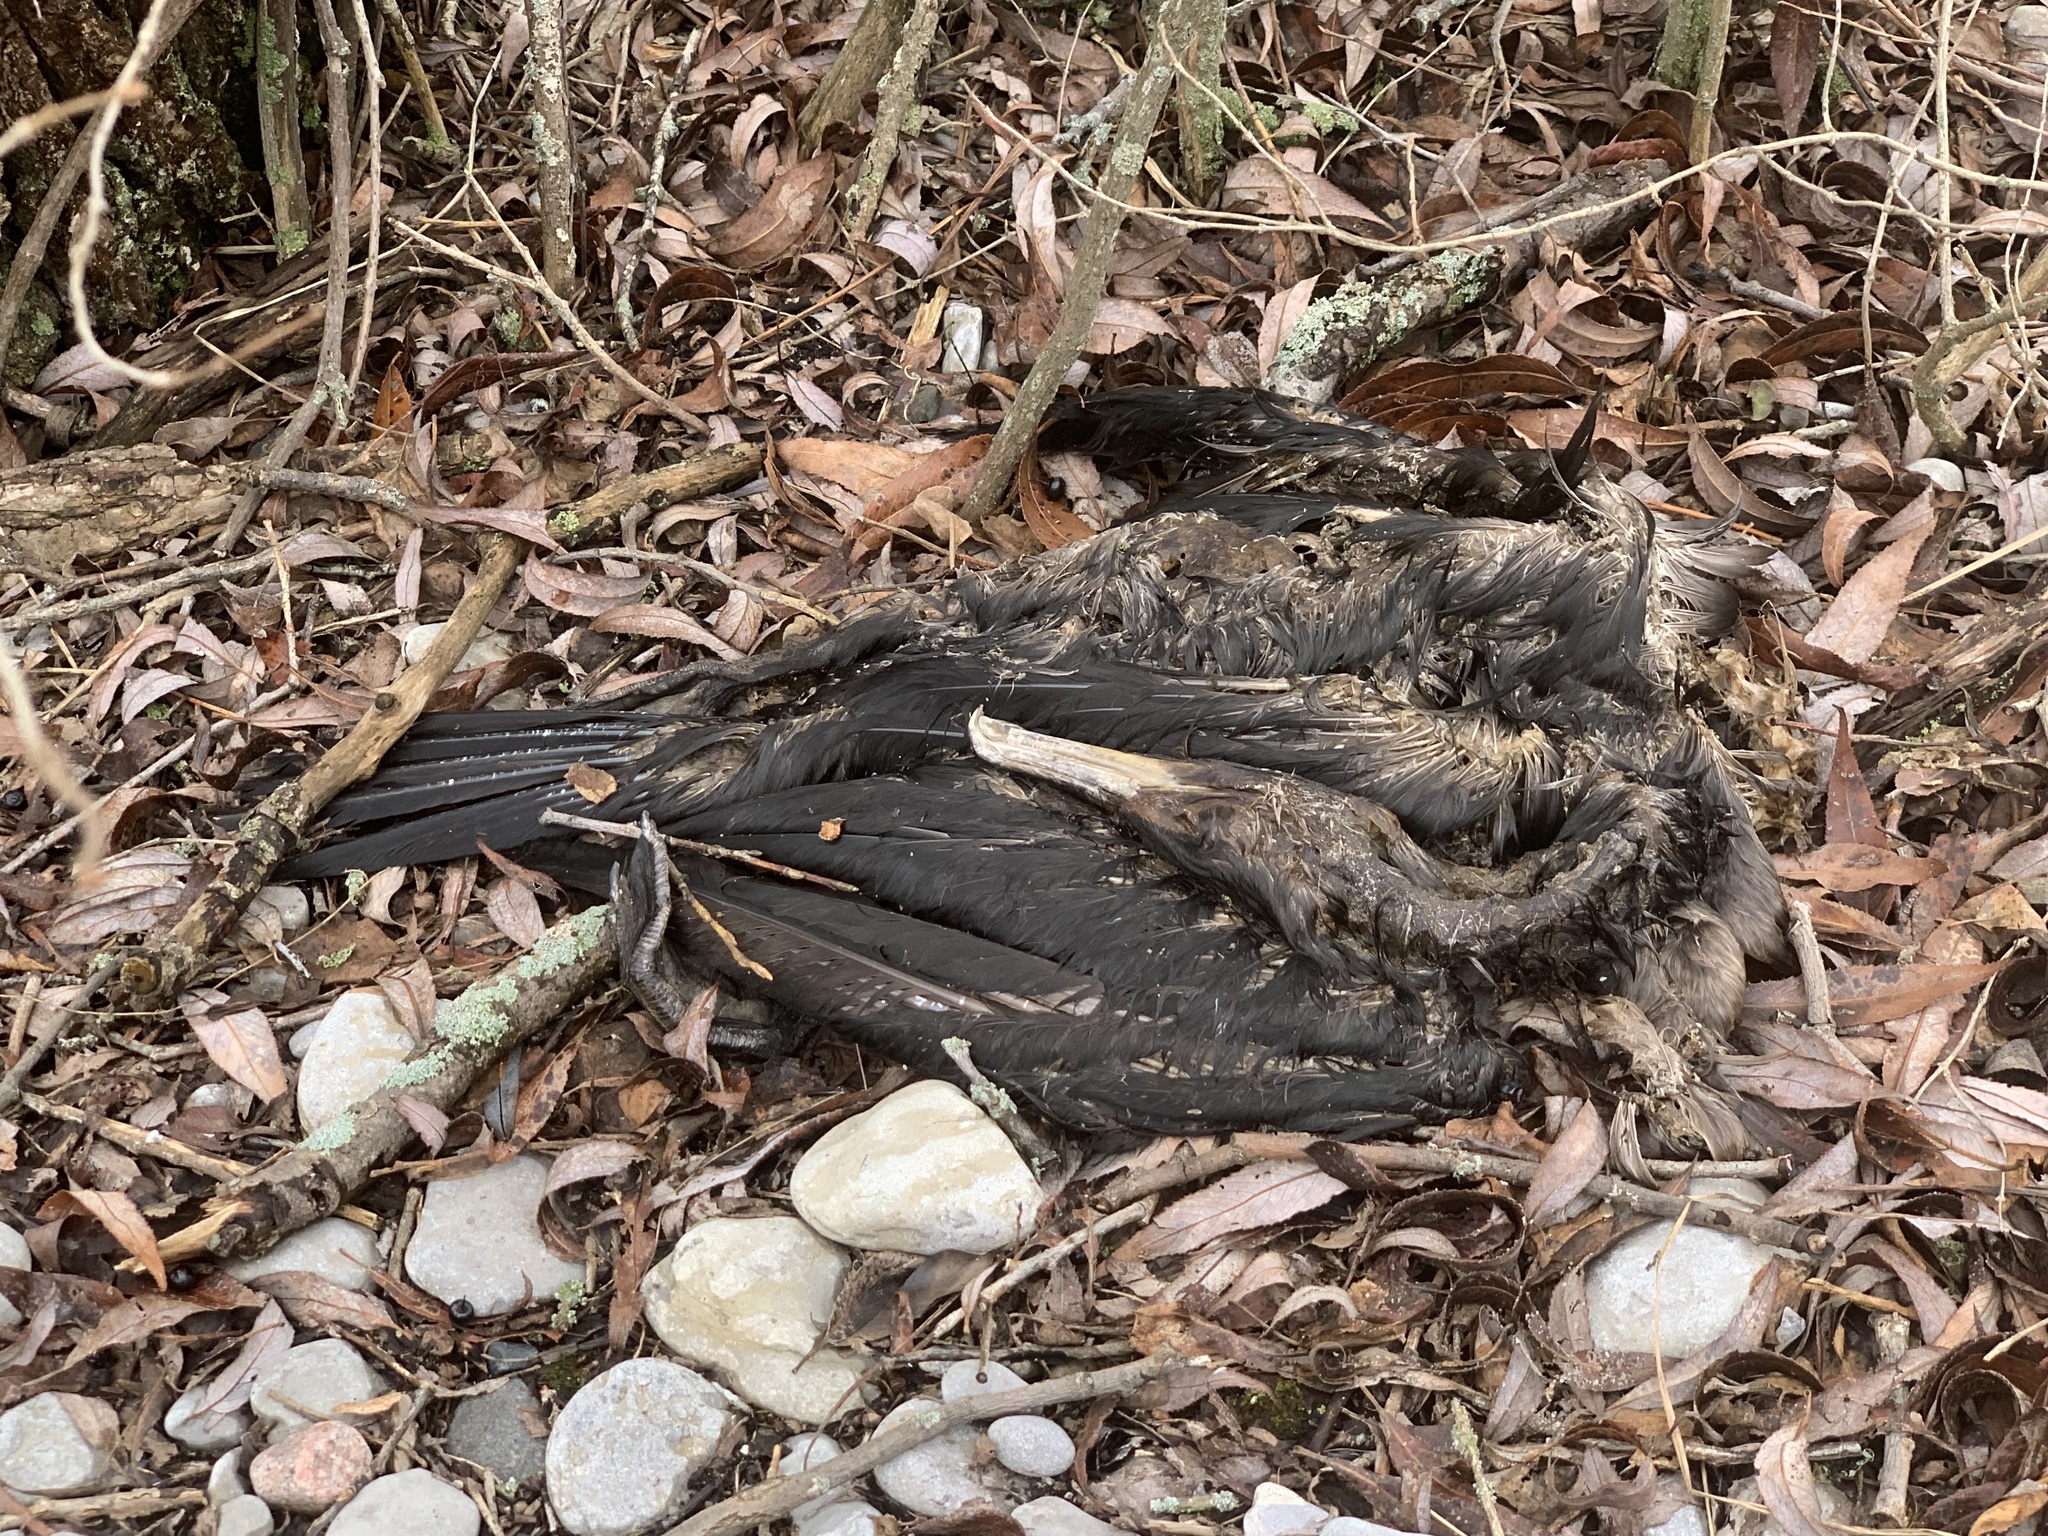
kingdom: Animalia
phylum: Chordata
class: Aves
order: Suliformes
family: Phalacrocoracidae
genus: Phalacrocorax
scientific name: Phalacrocorax auritus
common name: Double-crested cormorant
